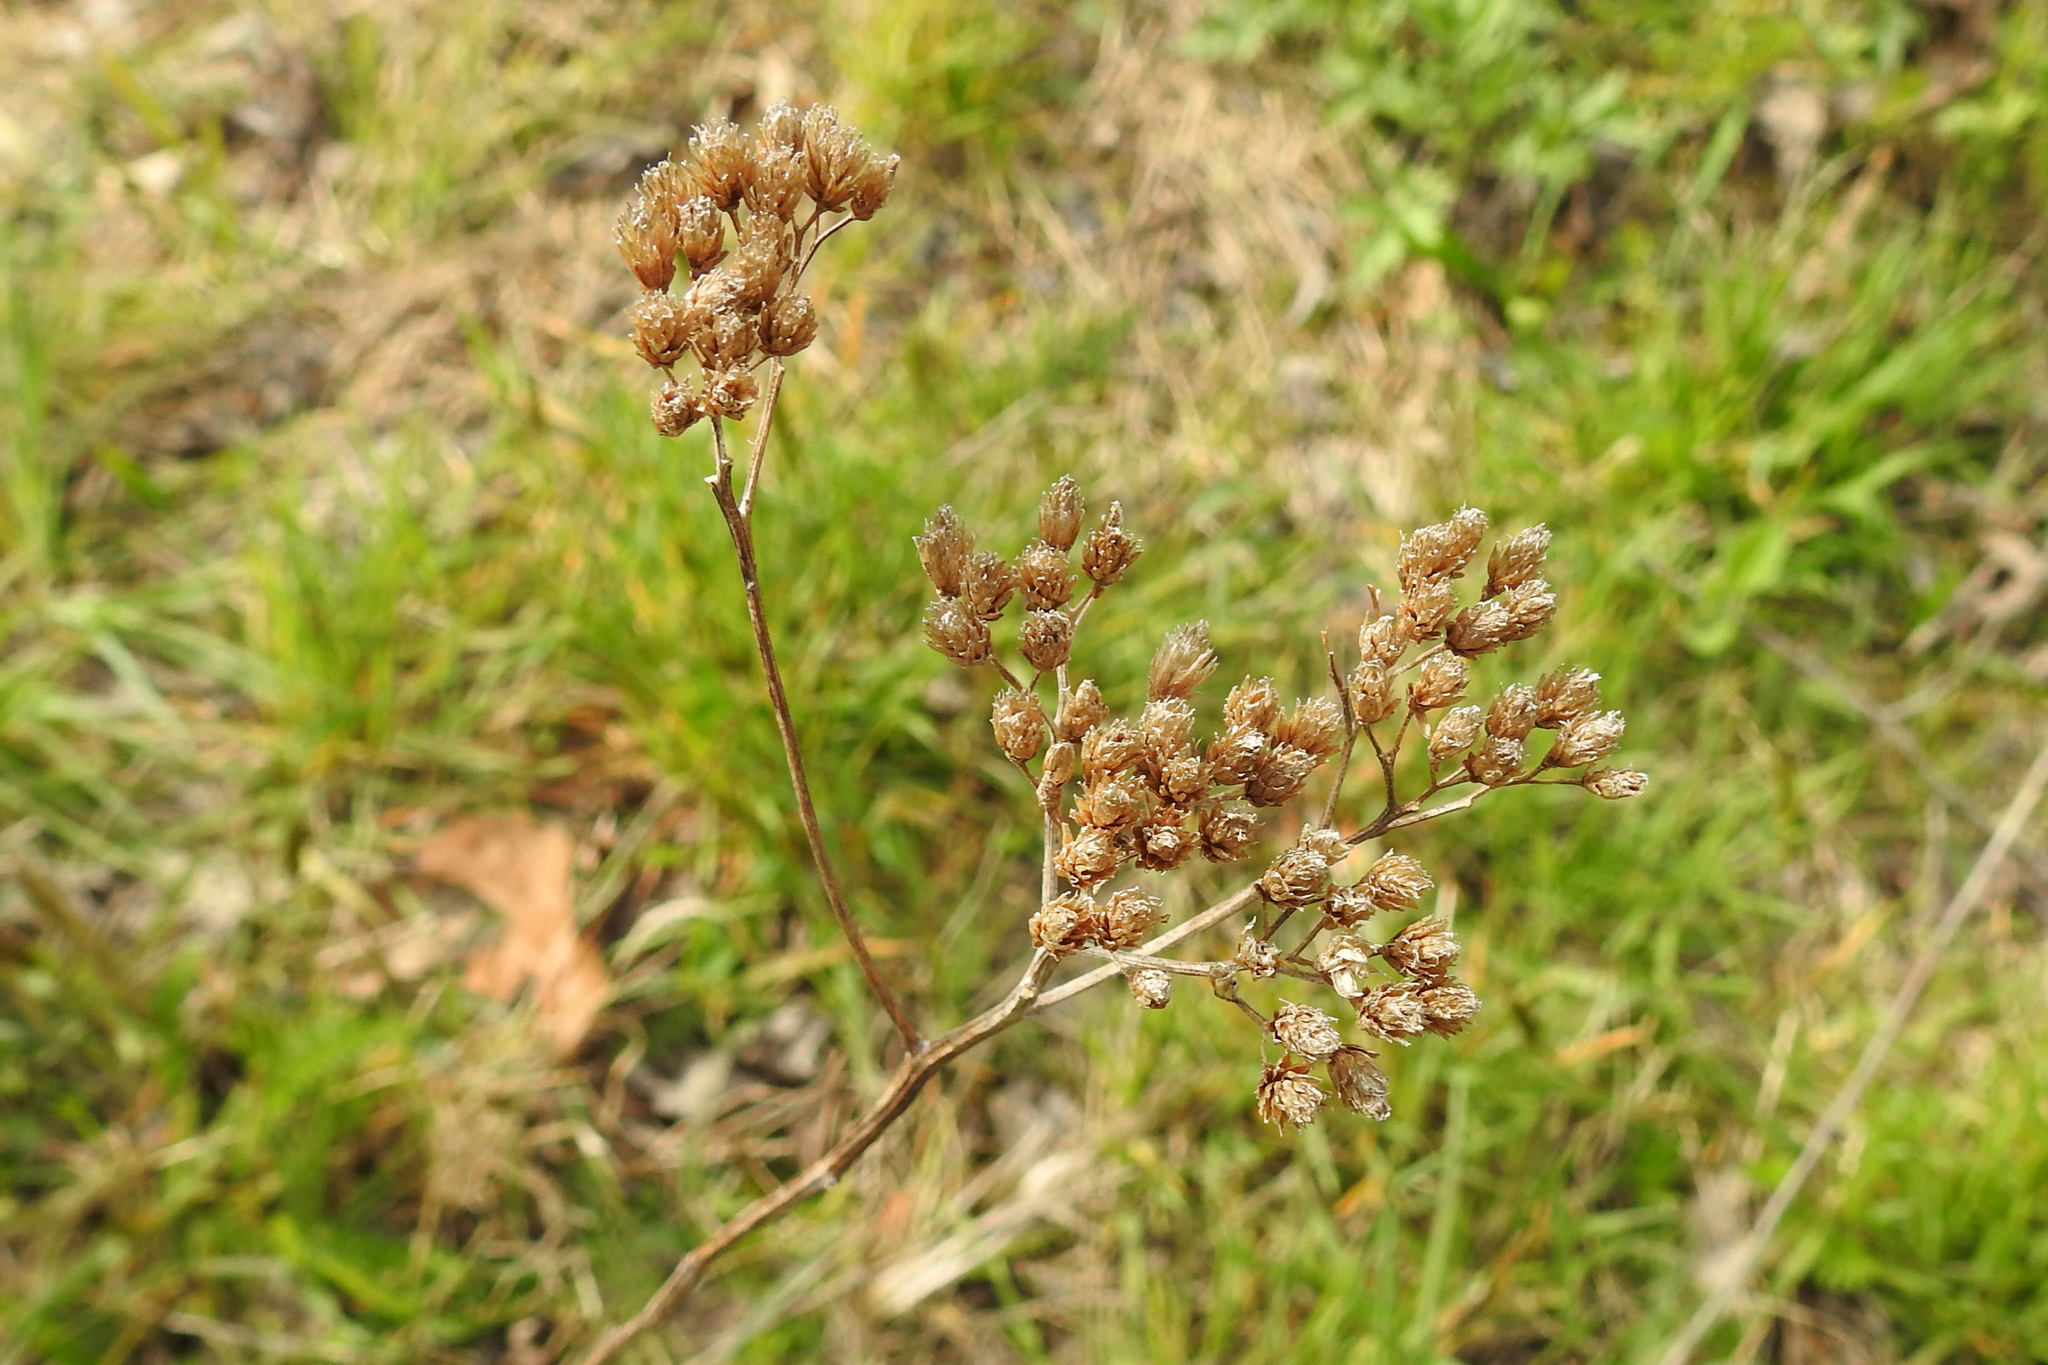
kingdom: Plantae
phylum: Tracheophyta
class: Magnoliopsida
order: Asterales
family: Asteraceae
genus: Achillea
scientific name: Achillea millefolium
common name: Yarrow
